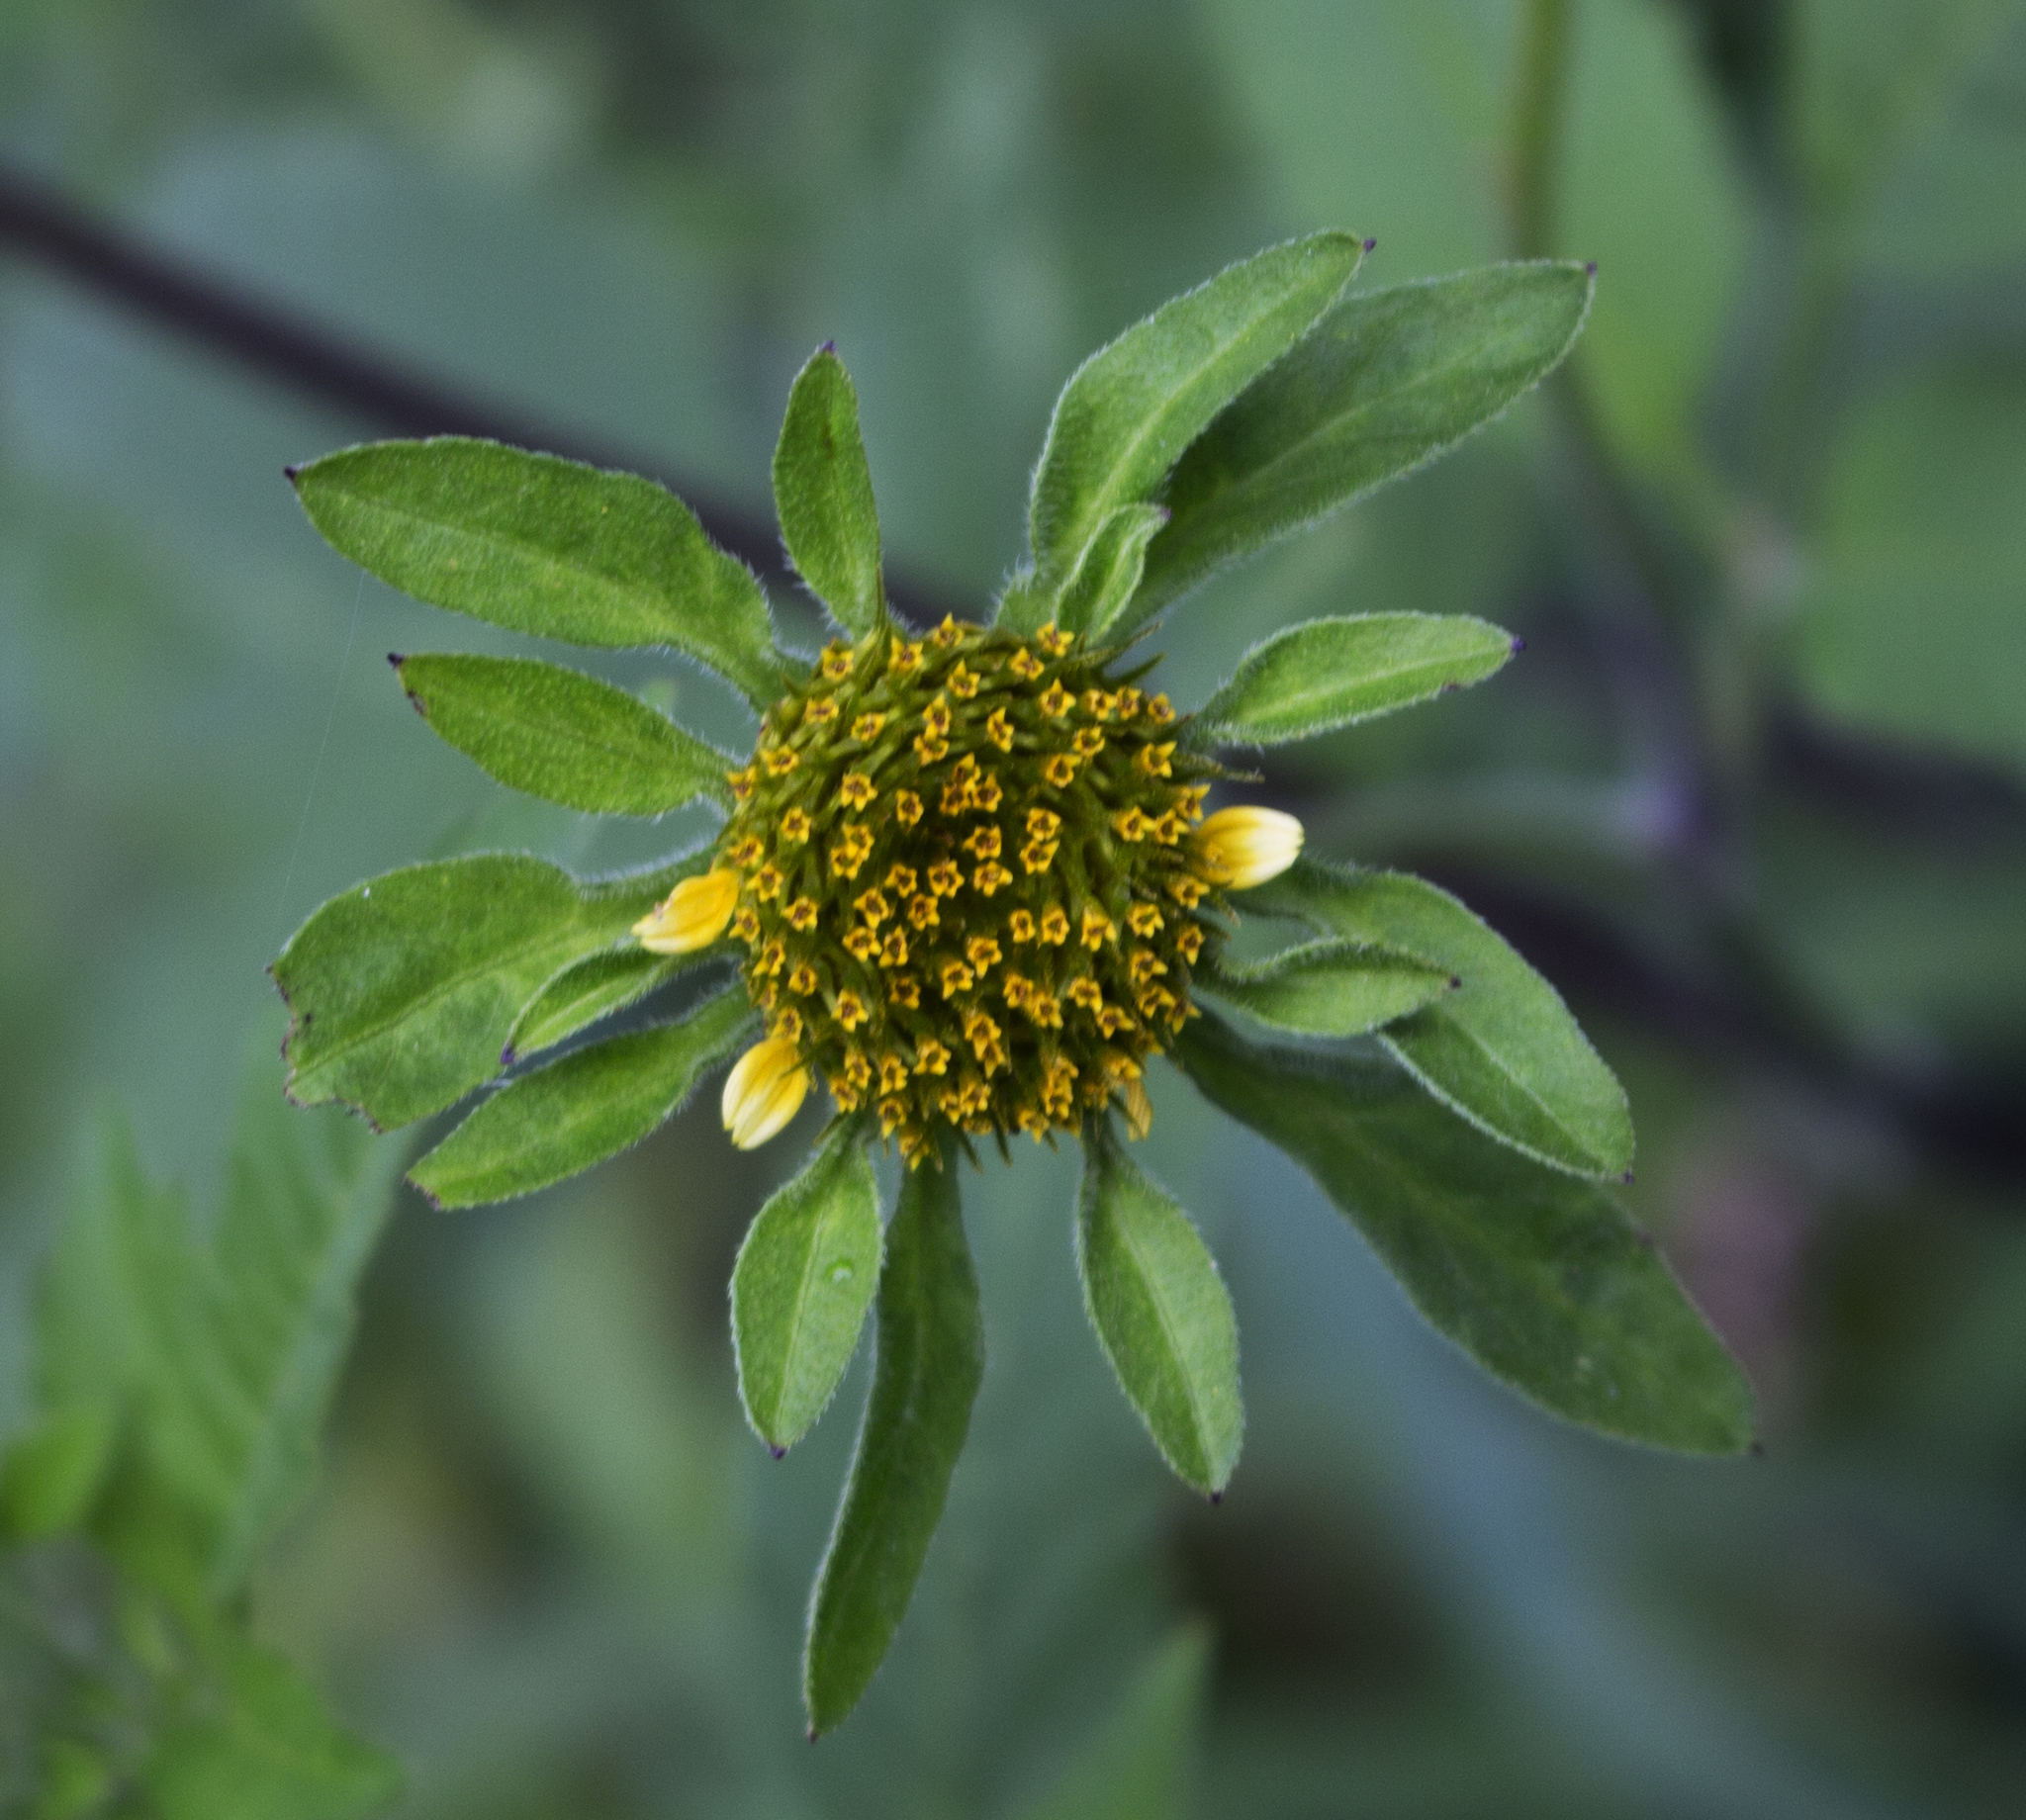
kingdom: Plantae
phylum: Tracheophyta
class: Magnoliopsida
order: Asterales
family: Asteraceae
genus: Bidens
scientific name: Bidens vulgata
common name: Tall beggarticks
